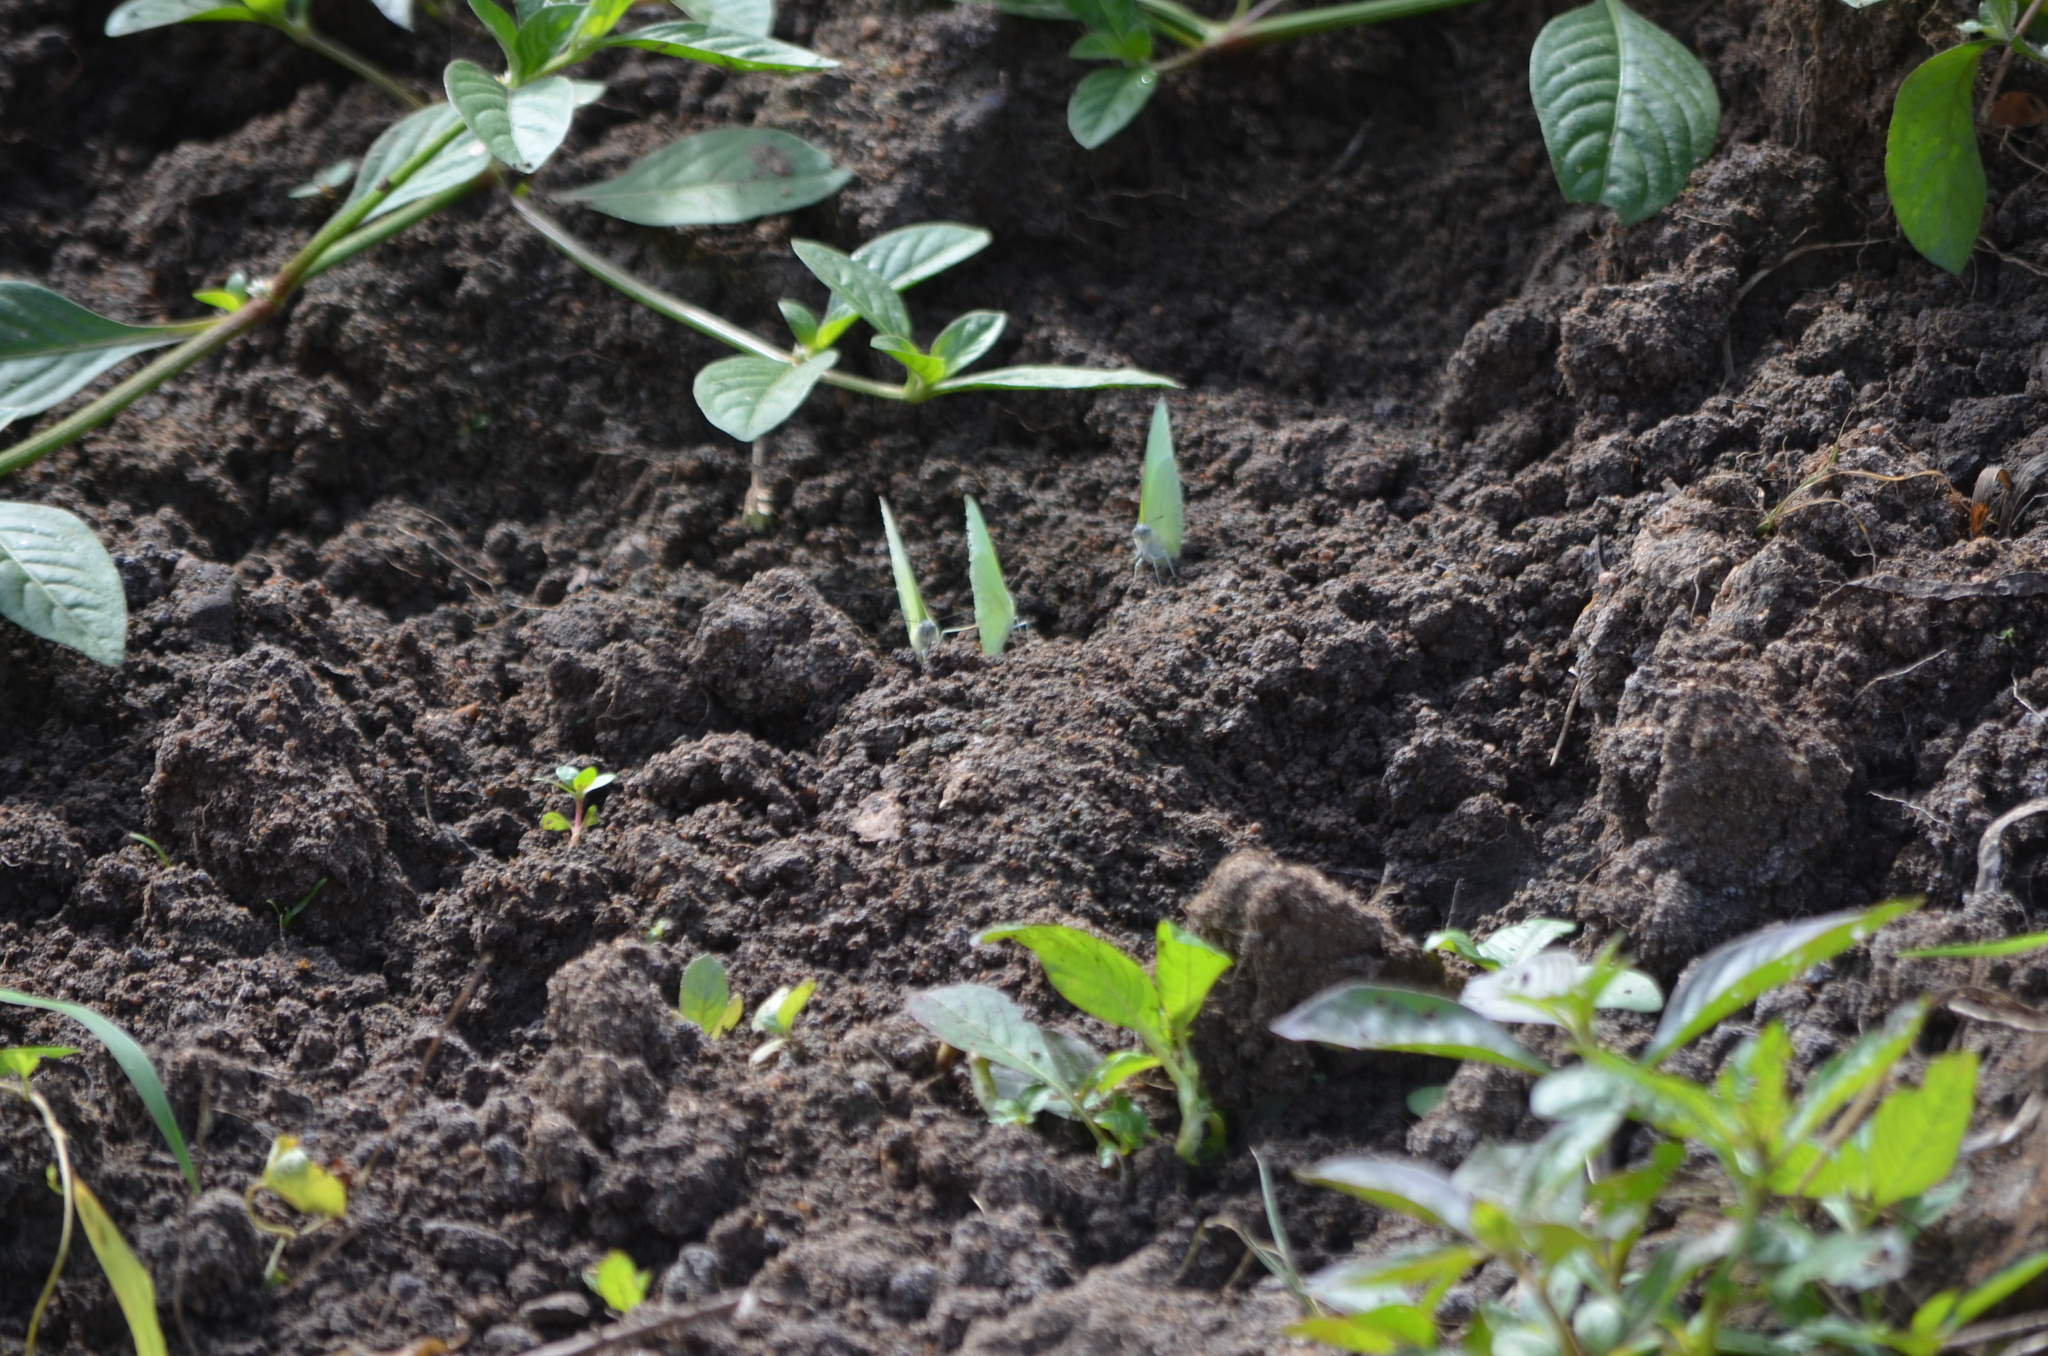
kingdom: Animalia
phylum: Arthropoda
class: Insecta
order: Lepidoptera
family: Pieridae
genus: Catopsilia
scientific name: Catopsilia pomona
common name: Common emigrant
